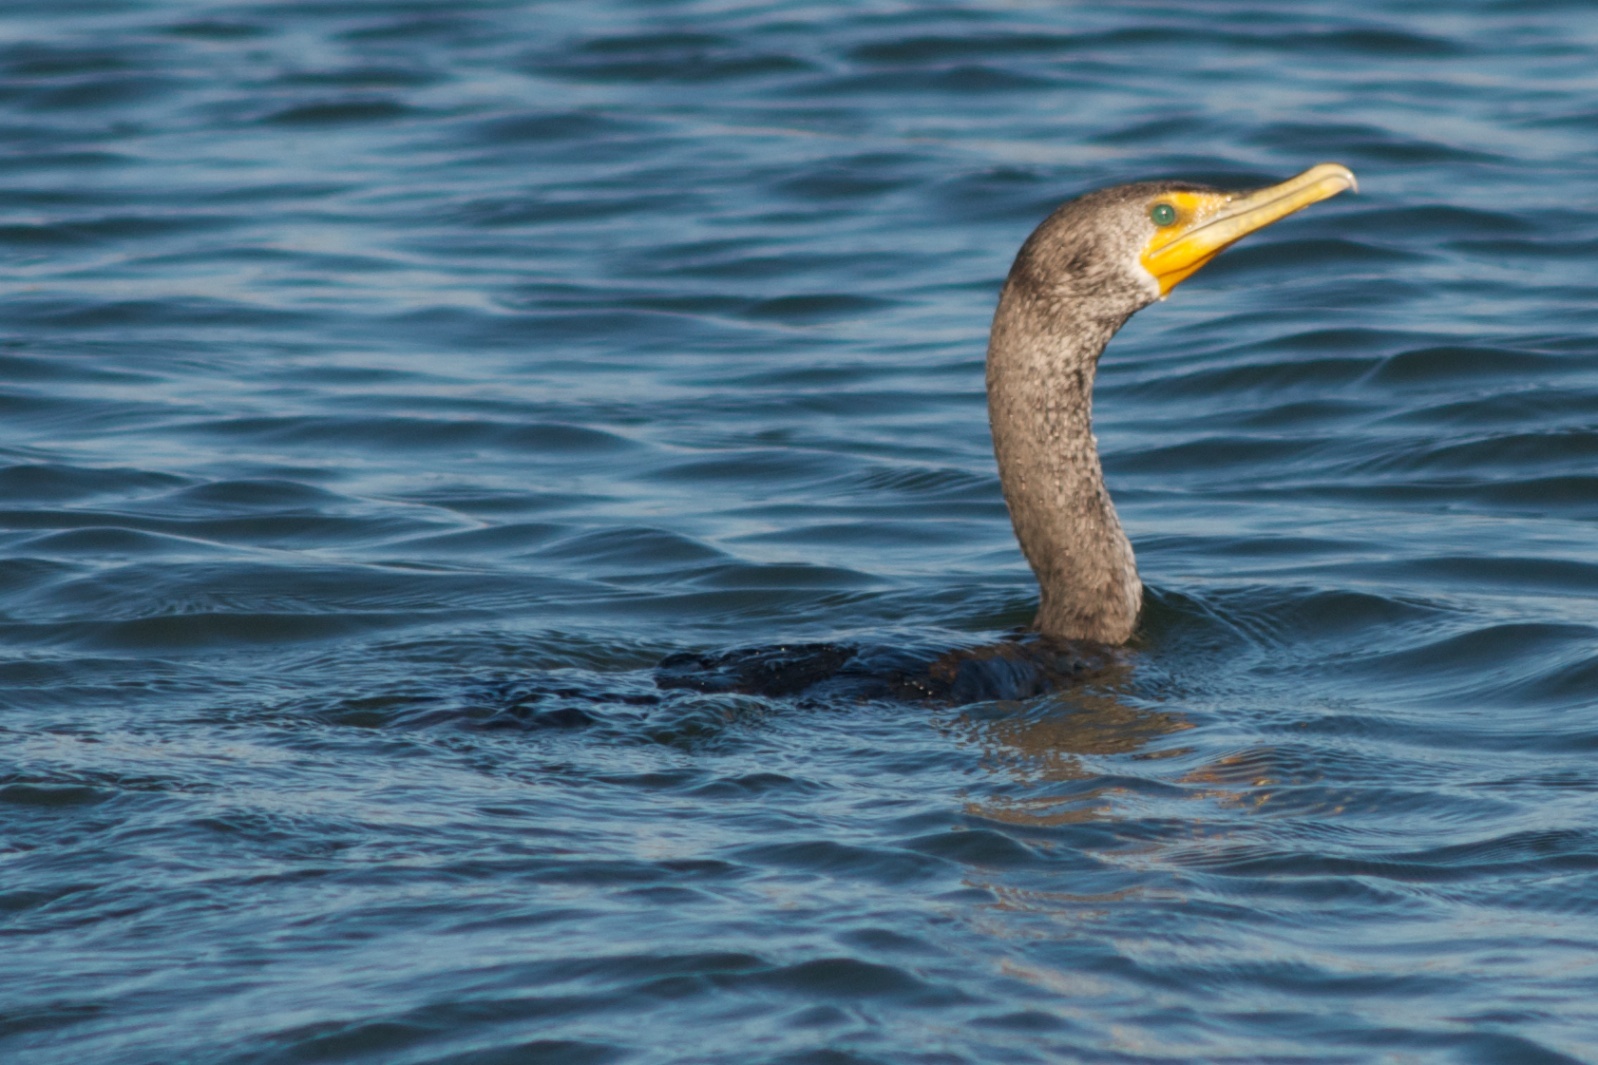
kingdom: Animalia
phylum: Chordata
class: Aves
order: Suliformes
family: Phalacrocoracidae
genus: Phalacrocorax
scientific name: Phalacrocorax auritus
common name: Double-crested cormorant
